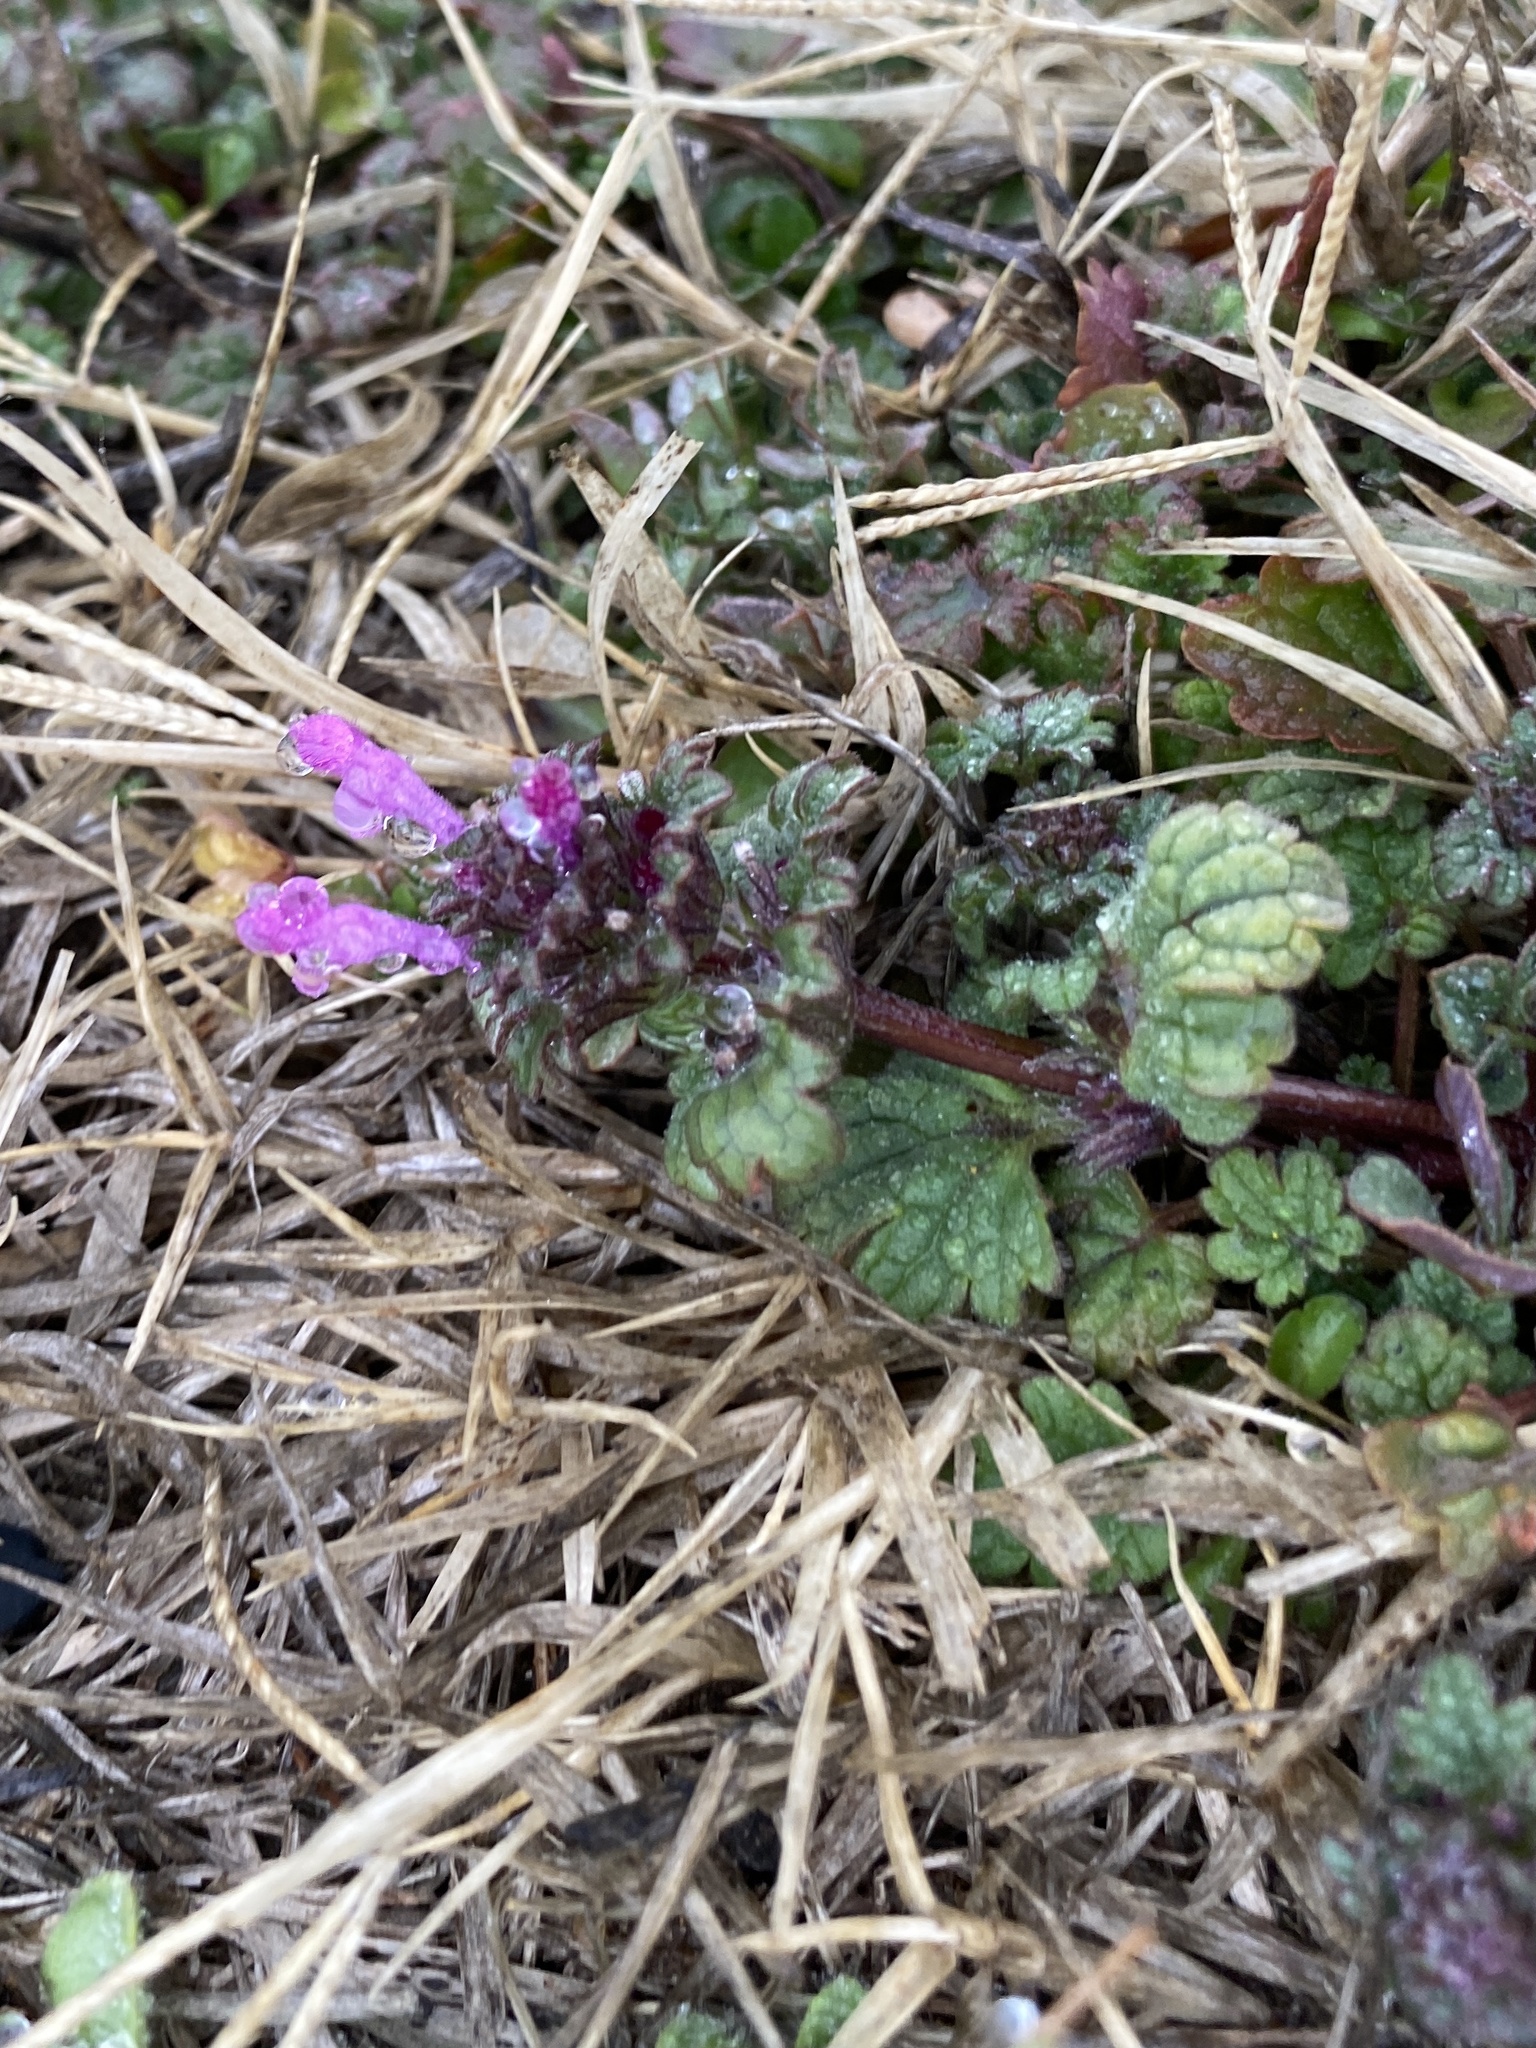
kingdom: Plantae
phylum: Tracheophyta
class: Magnoliopsida
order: Lamiales
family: Lamiaceae
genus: Lamium
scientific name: Lamium amplexicaule
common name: Henbit dead-nettle
